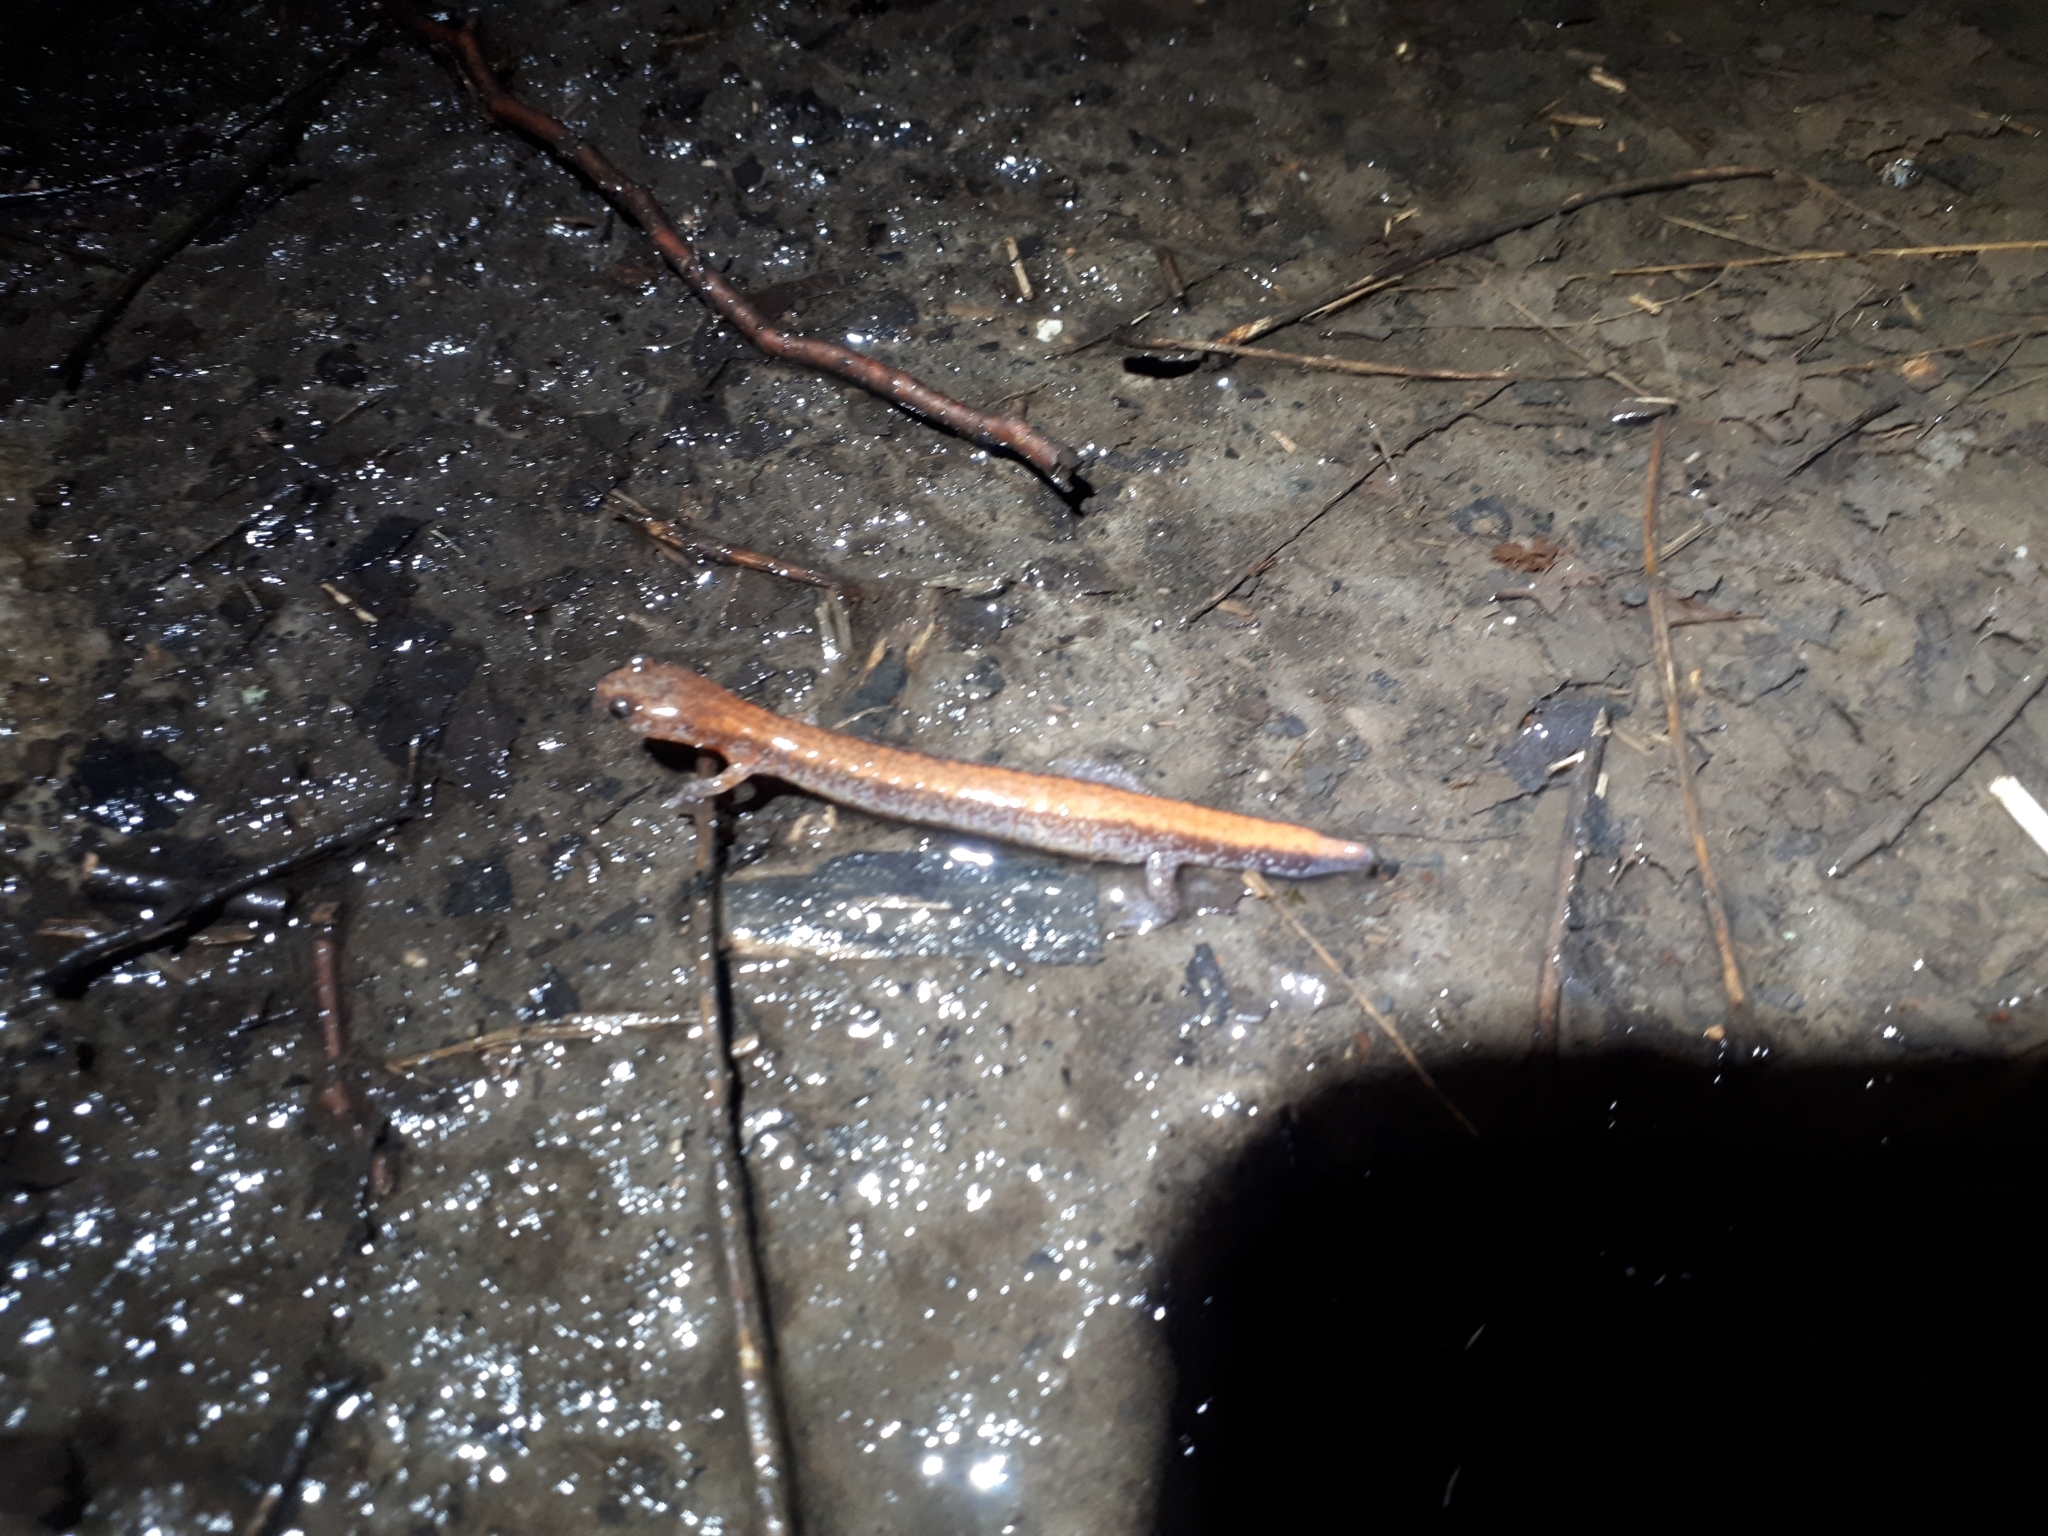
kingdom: Animalia
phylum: Chordata
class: Amphibia
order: Caudata
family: Plethodontidae
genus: Plethodon
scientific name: Plethodon cinereus
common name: Redback salamander
